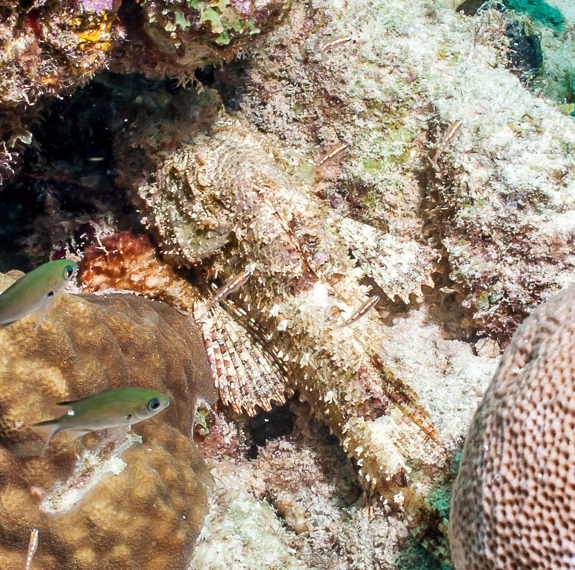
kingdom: Animalia
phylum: Chordata
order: Scorpaeniformes
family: Scorpaenidae
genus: Scorpaena
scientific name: Scorpaena plumieri
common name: Spotted scorpionfish
